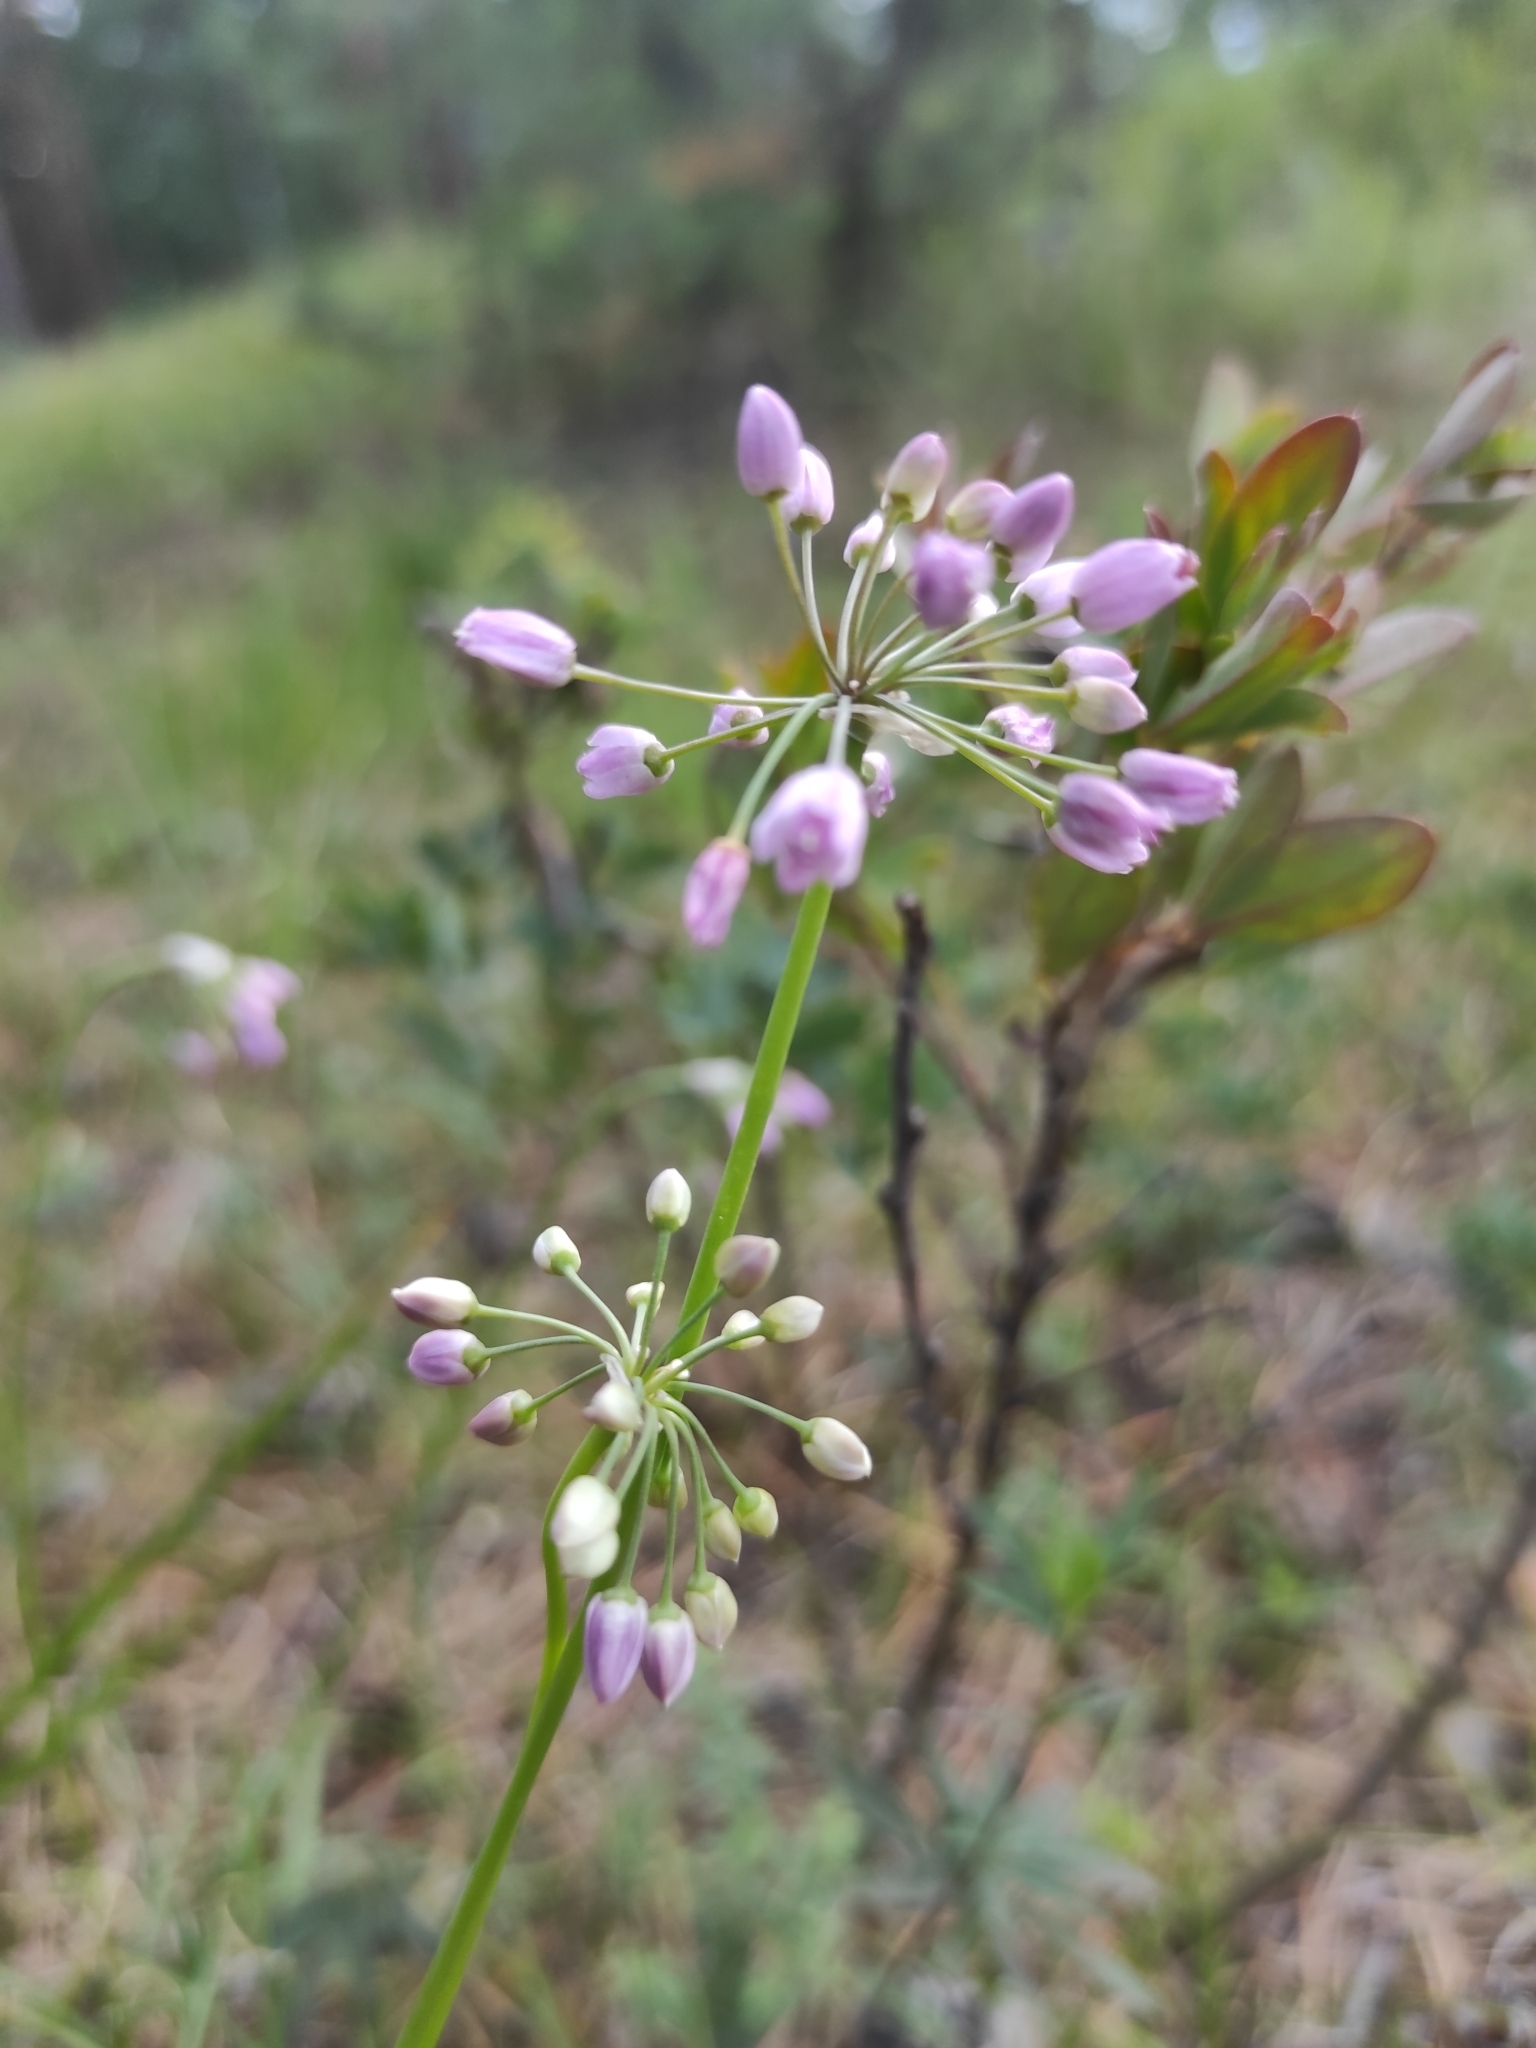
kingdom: Plantae
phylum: Tracheophyta
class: Liliopsida
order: Asparagales
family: Amaryllidaceae
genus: Allium
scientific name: Allium rubens
